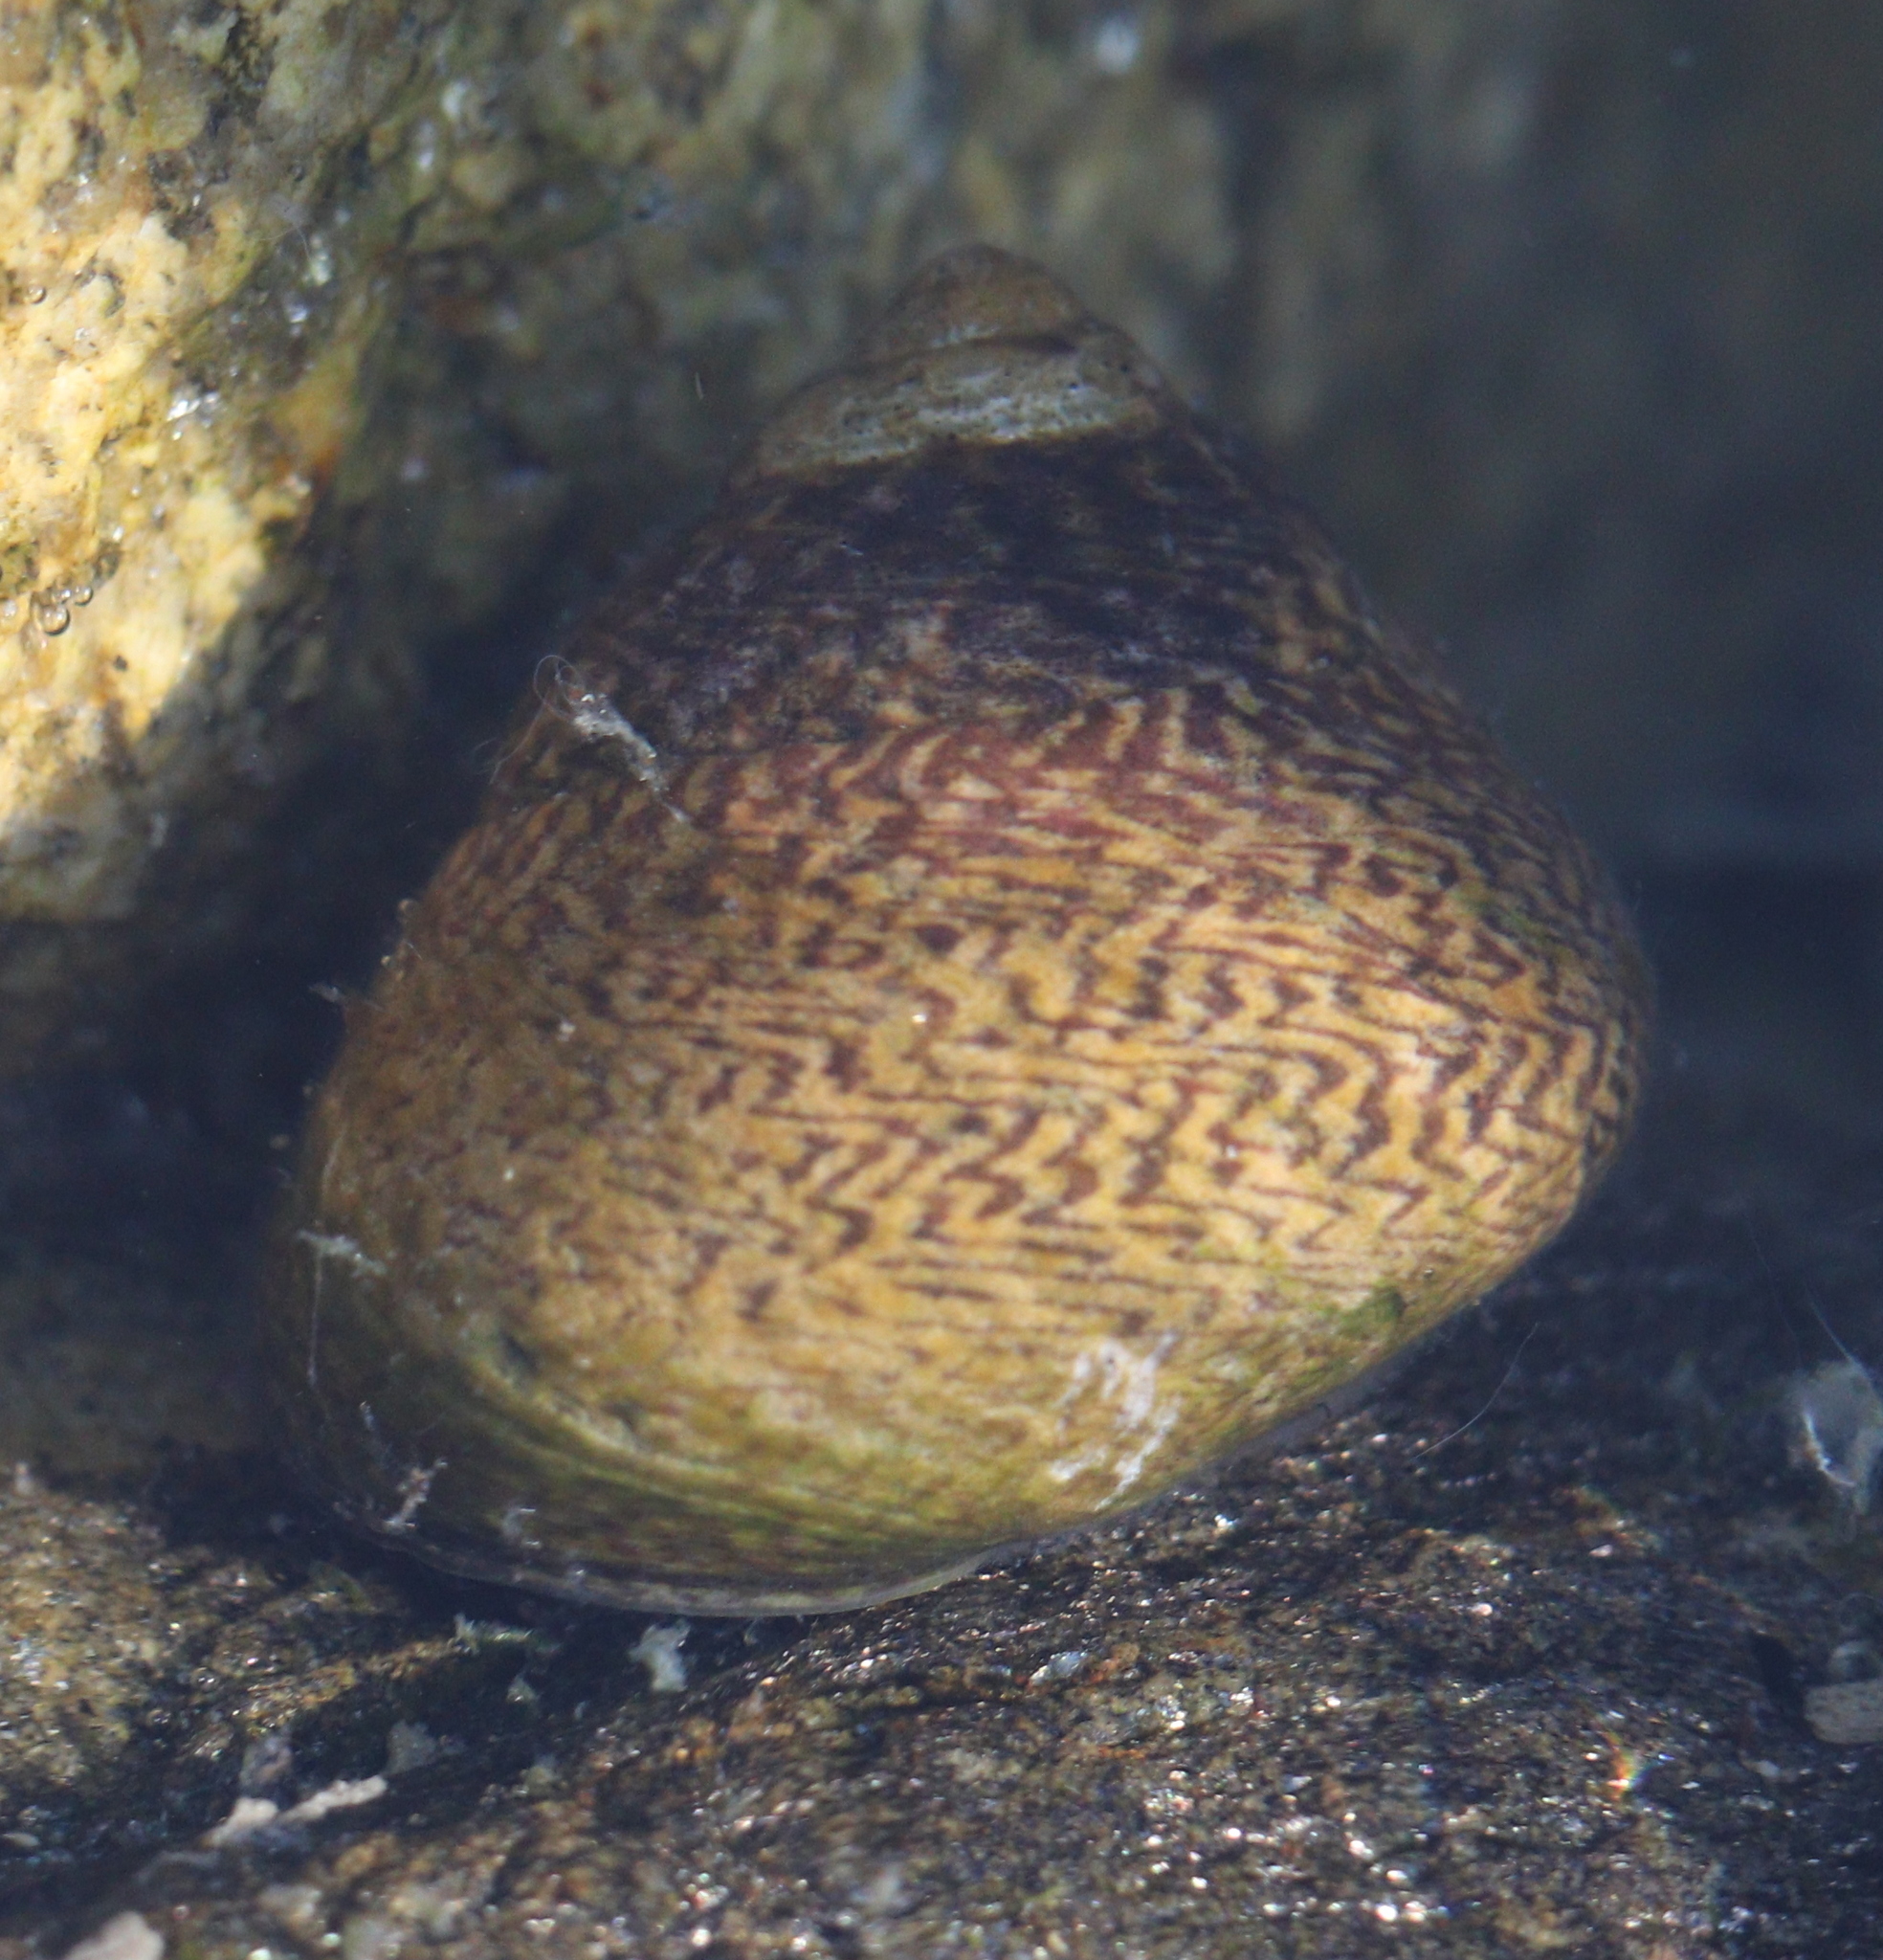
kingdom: Animalia
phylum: Mollusca
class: Gastropoda
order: Trochida
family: Trochidae
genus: Phorcus
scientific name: Phorcus lineatus
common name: Toothed top shell
